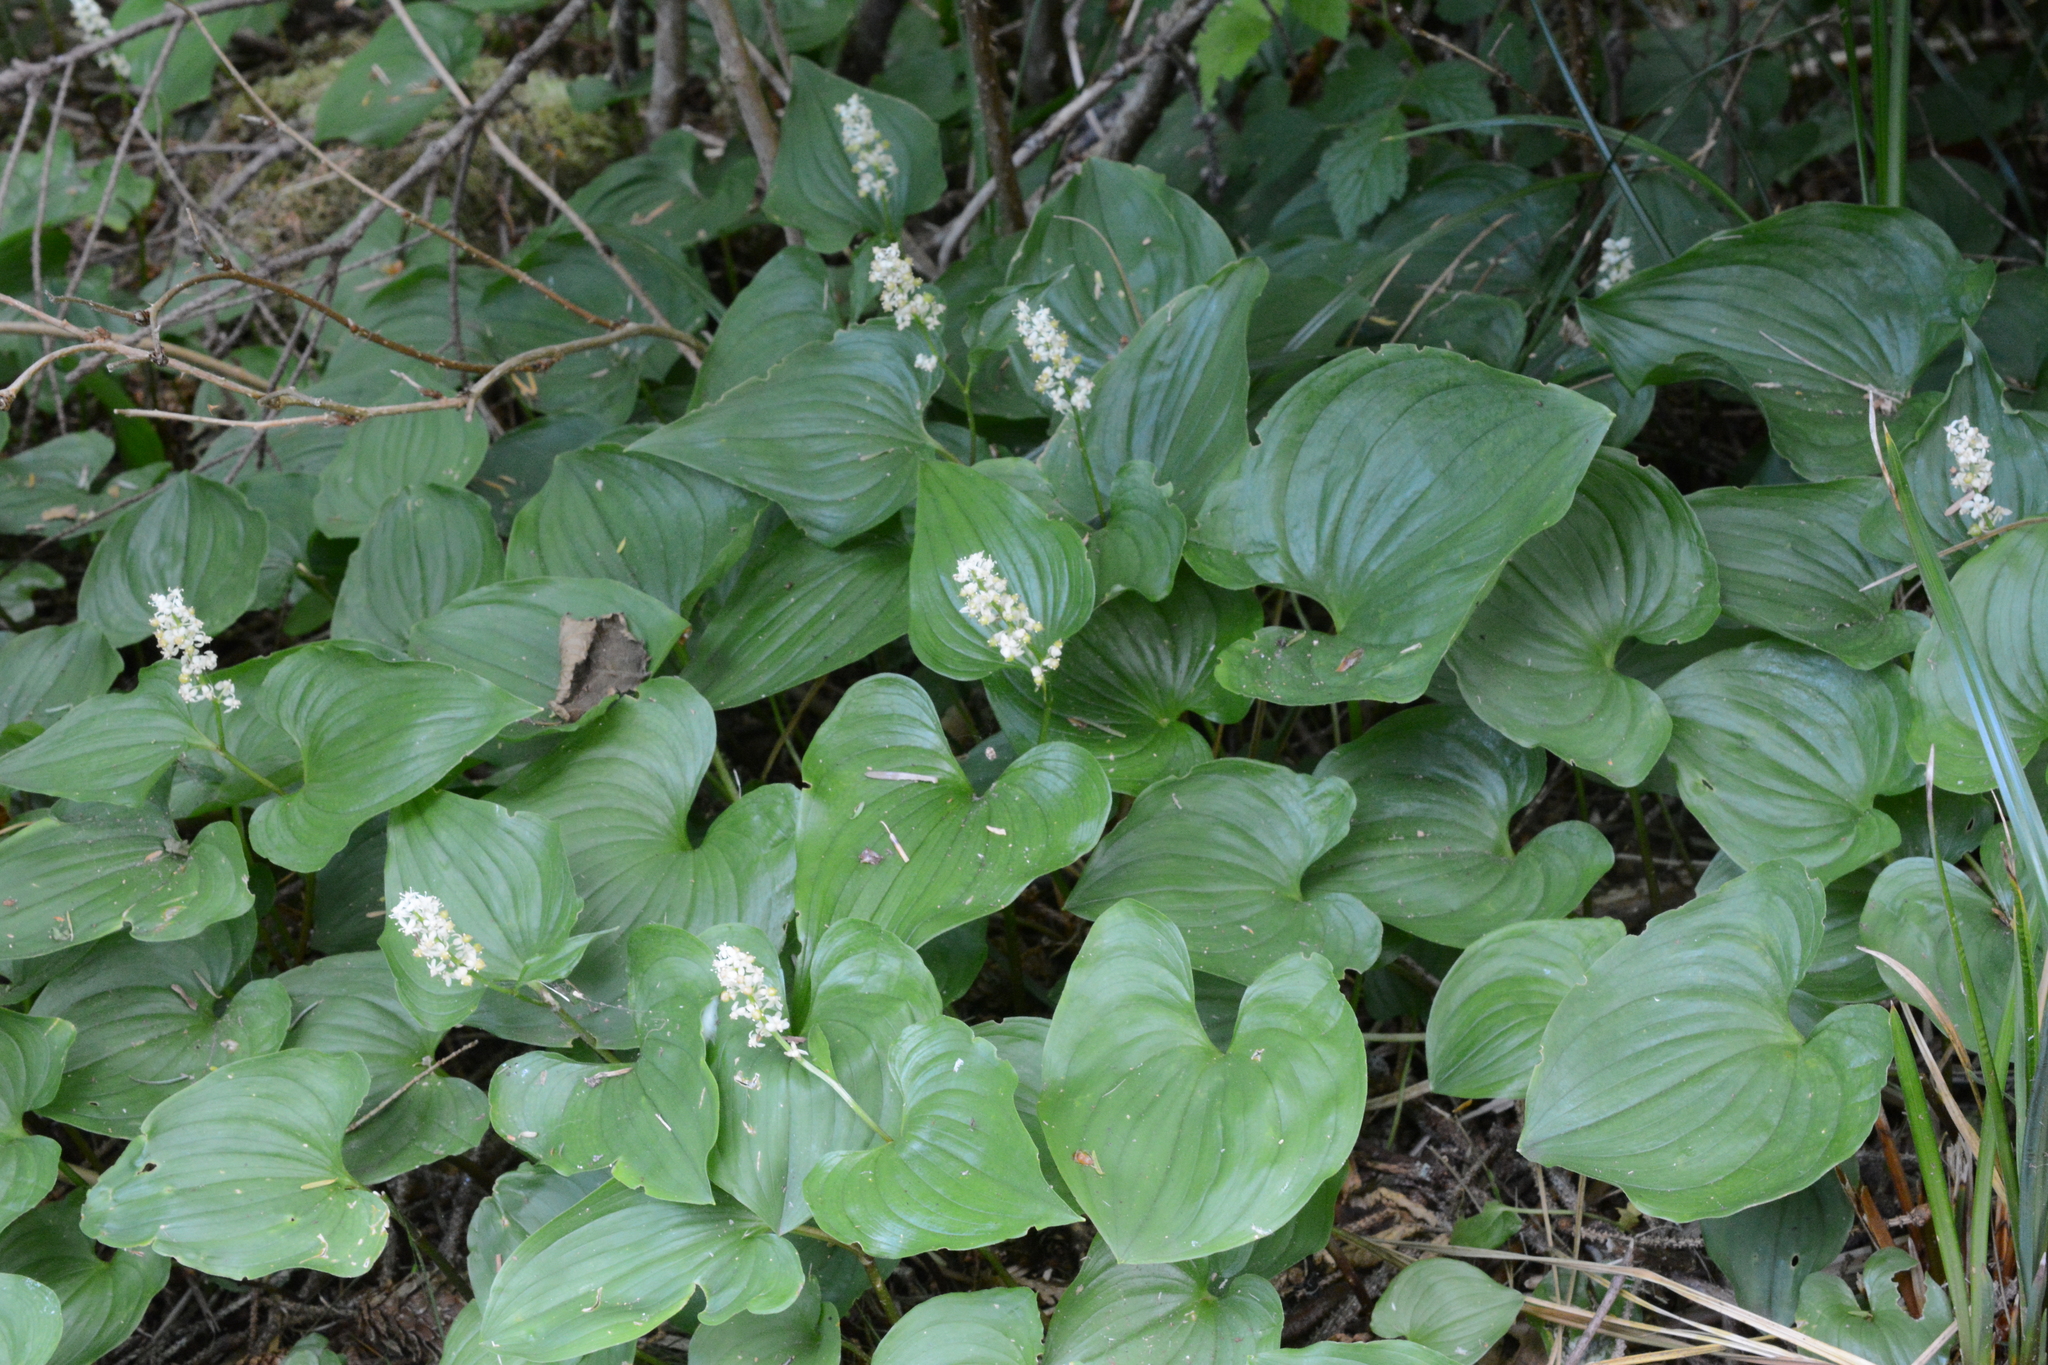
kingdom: Plantae
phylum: Tracheophyta
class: Liliopsida
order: Asparagales
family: Asparagaceae
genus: Maianthemum
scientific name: Maianthemum dilatatum
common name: False lily-of-the-valley
